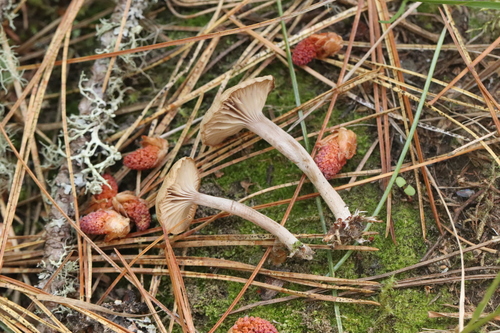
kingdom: Fungi
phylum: Basidiomycota
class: Agaricomycetes
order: Agaricales
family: Callistosporiaceae
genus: Pseudolaccaria
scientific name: Pseudolaccaria pachyphylla
